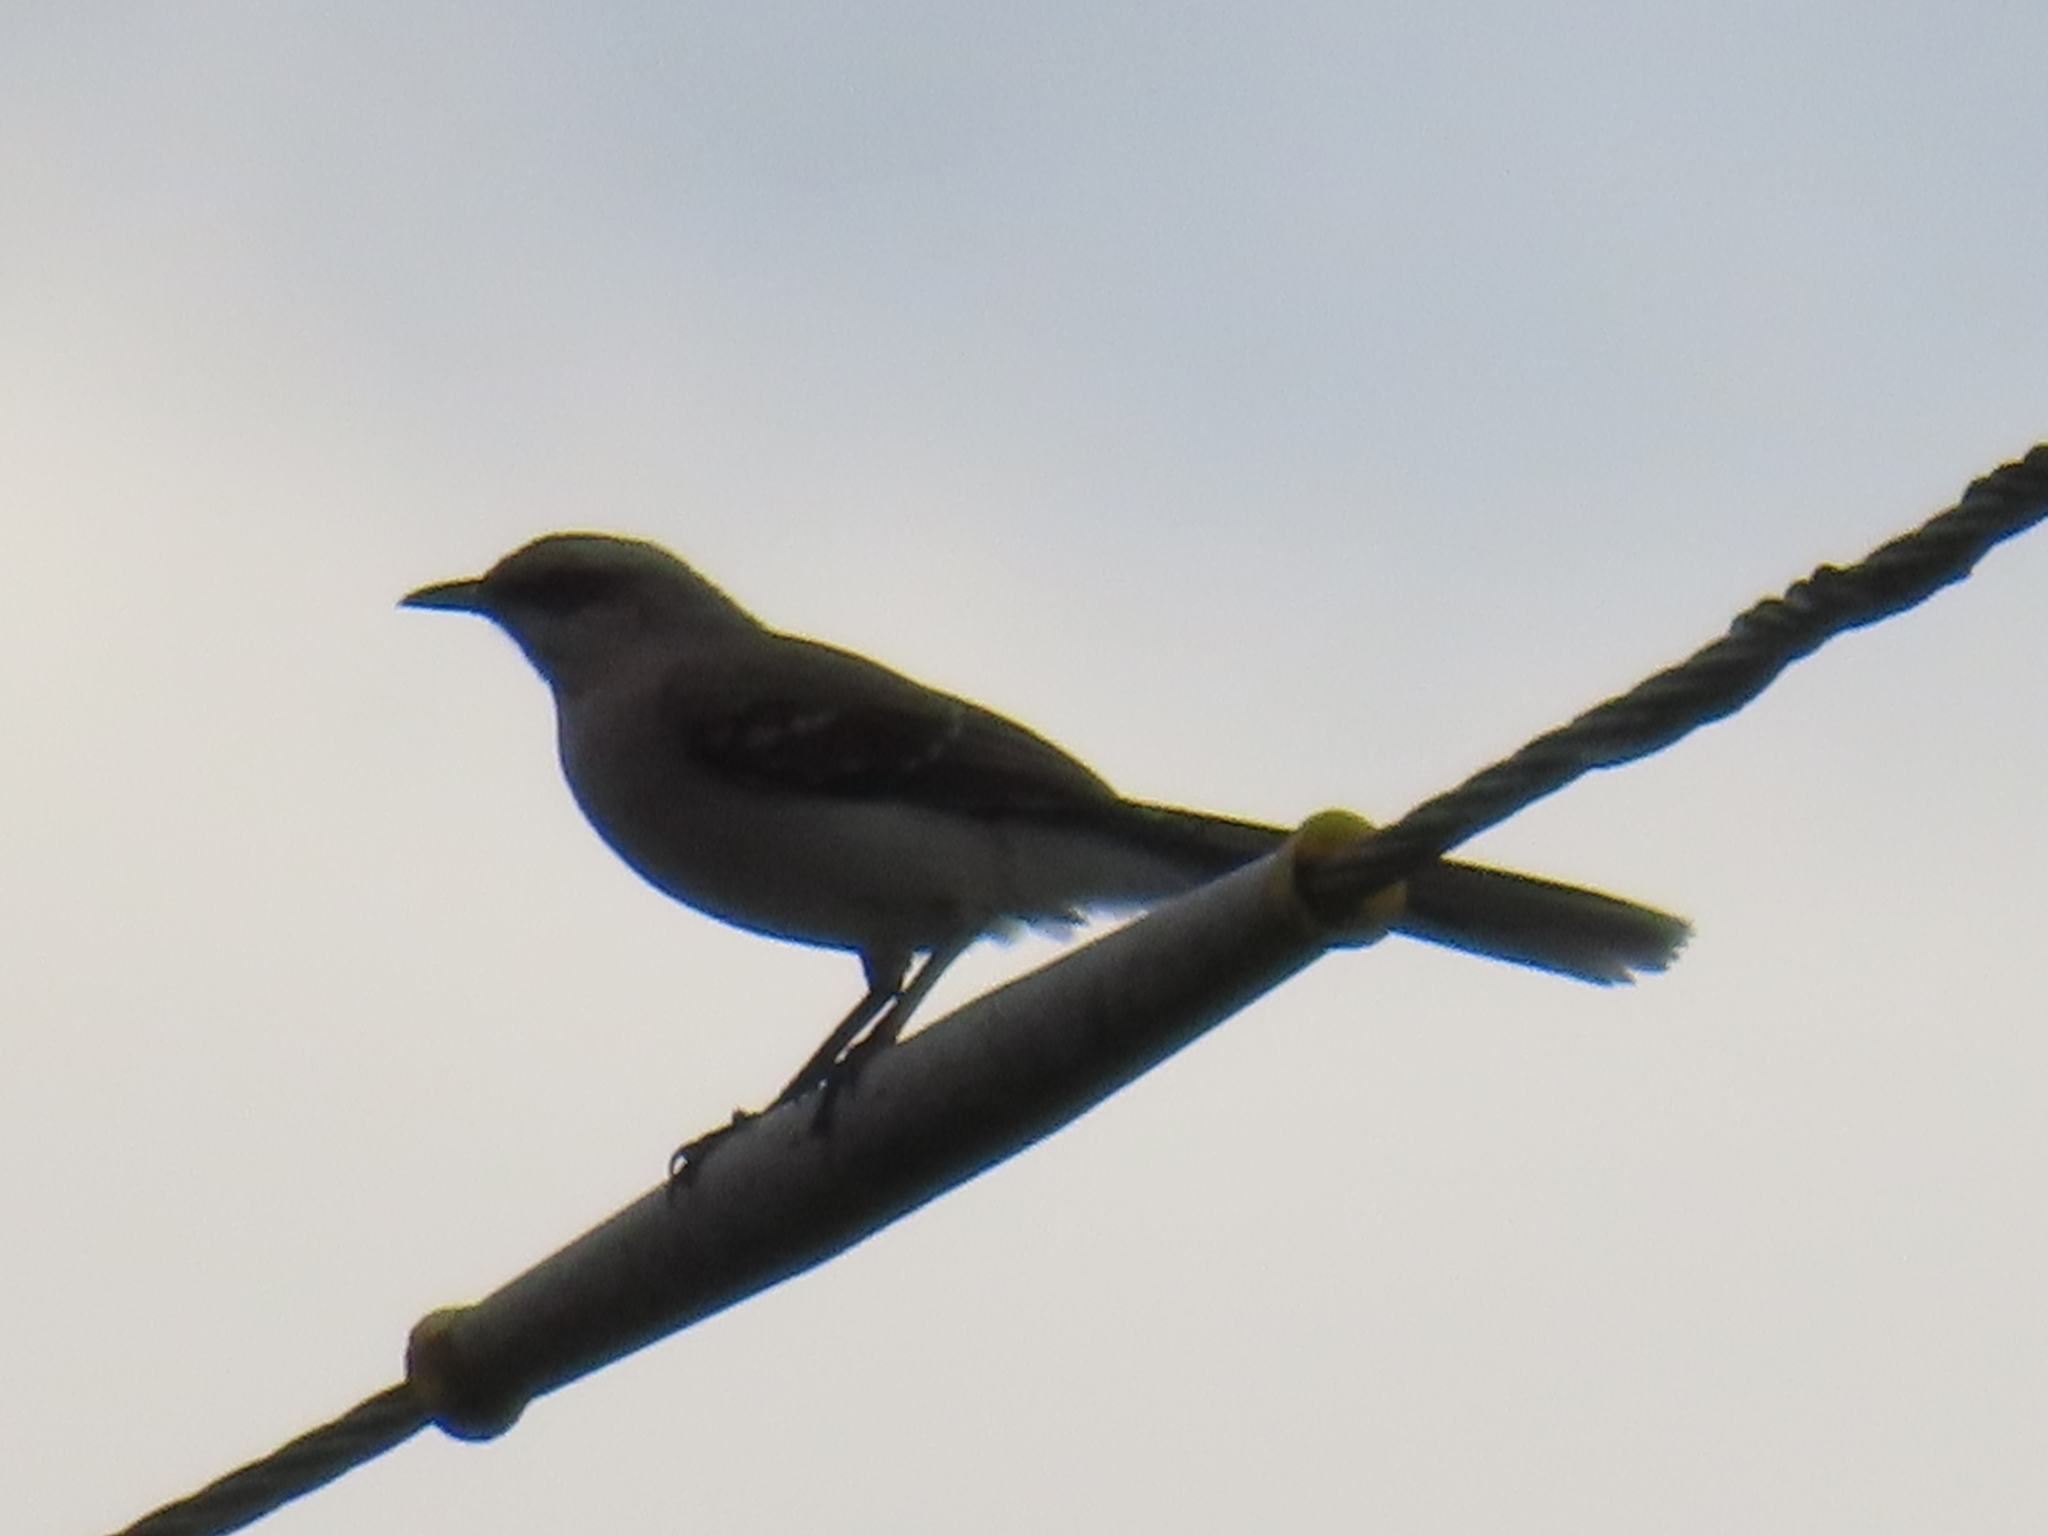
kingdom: Animalia
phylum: Chordata
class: Aves
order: Passeriformes
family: Mimidae
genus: Mimus
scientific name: Mimus gilvus
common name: Tropical mockingbird
